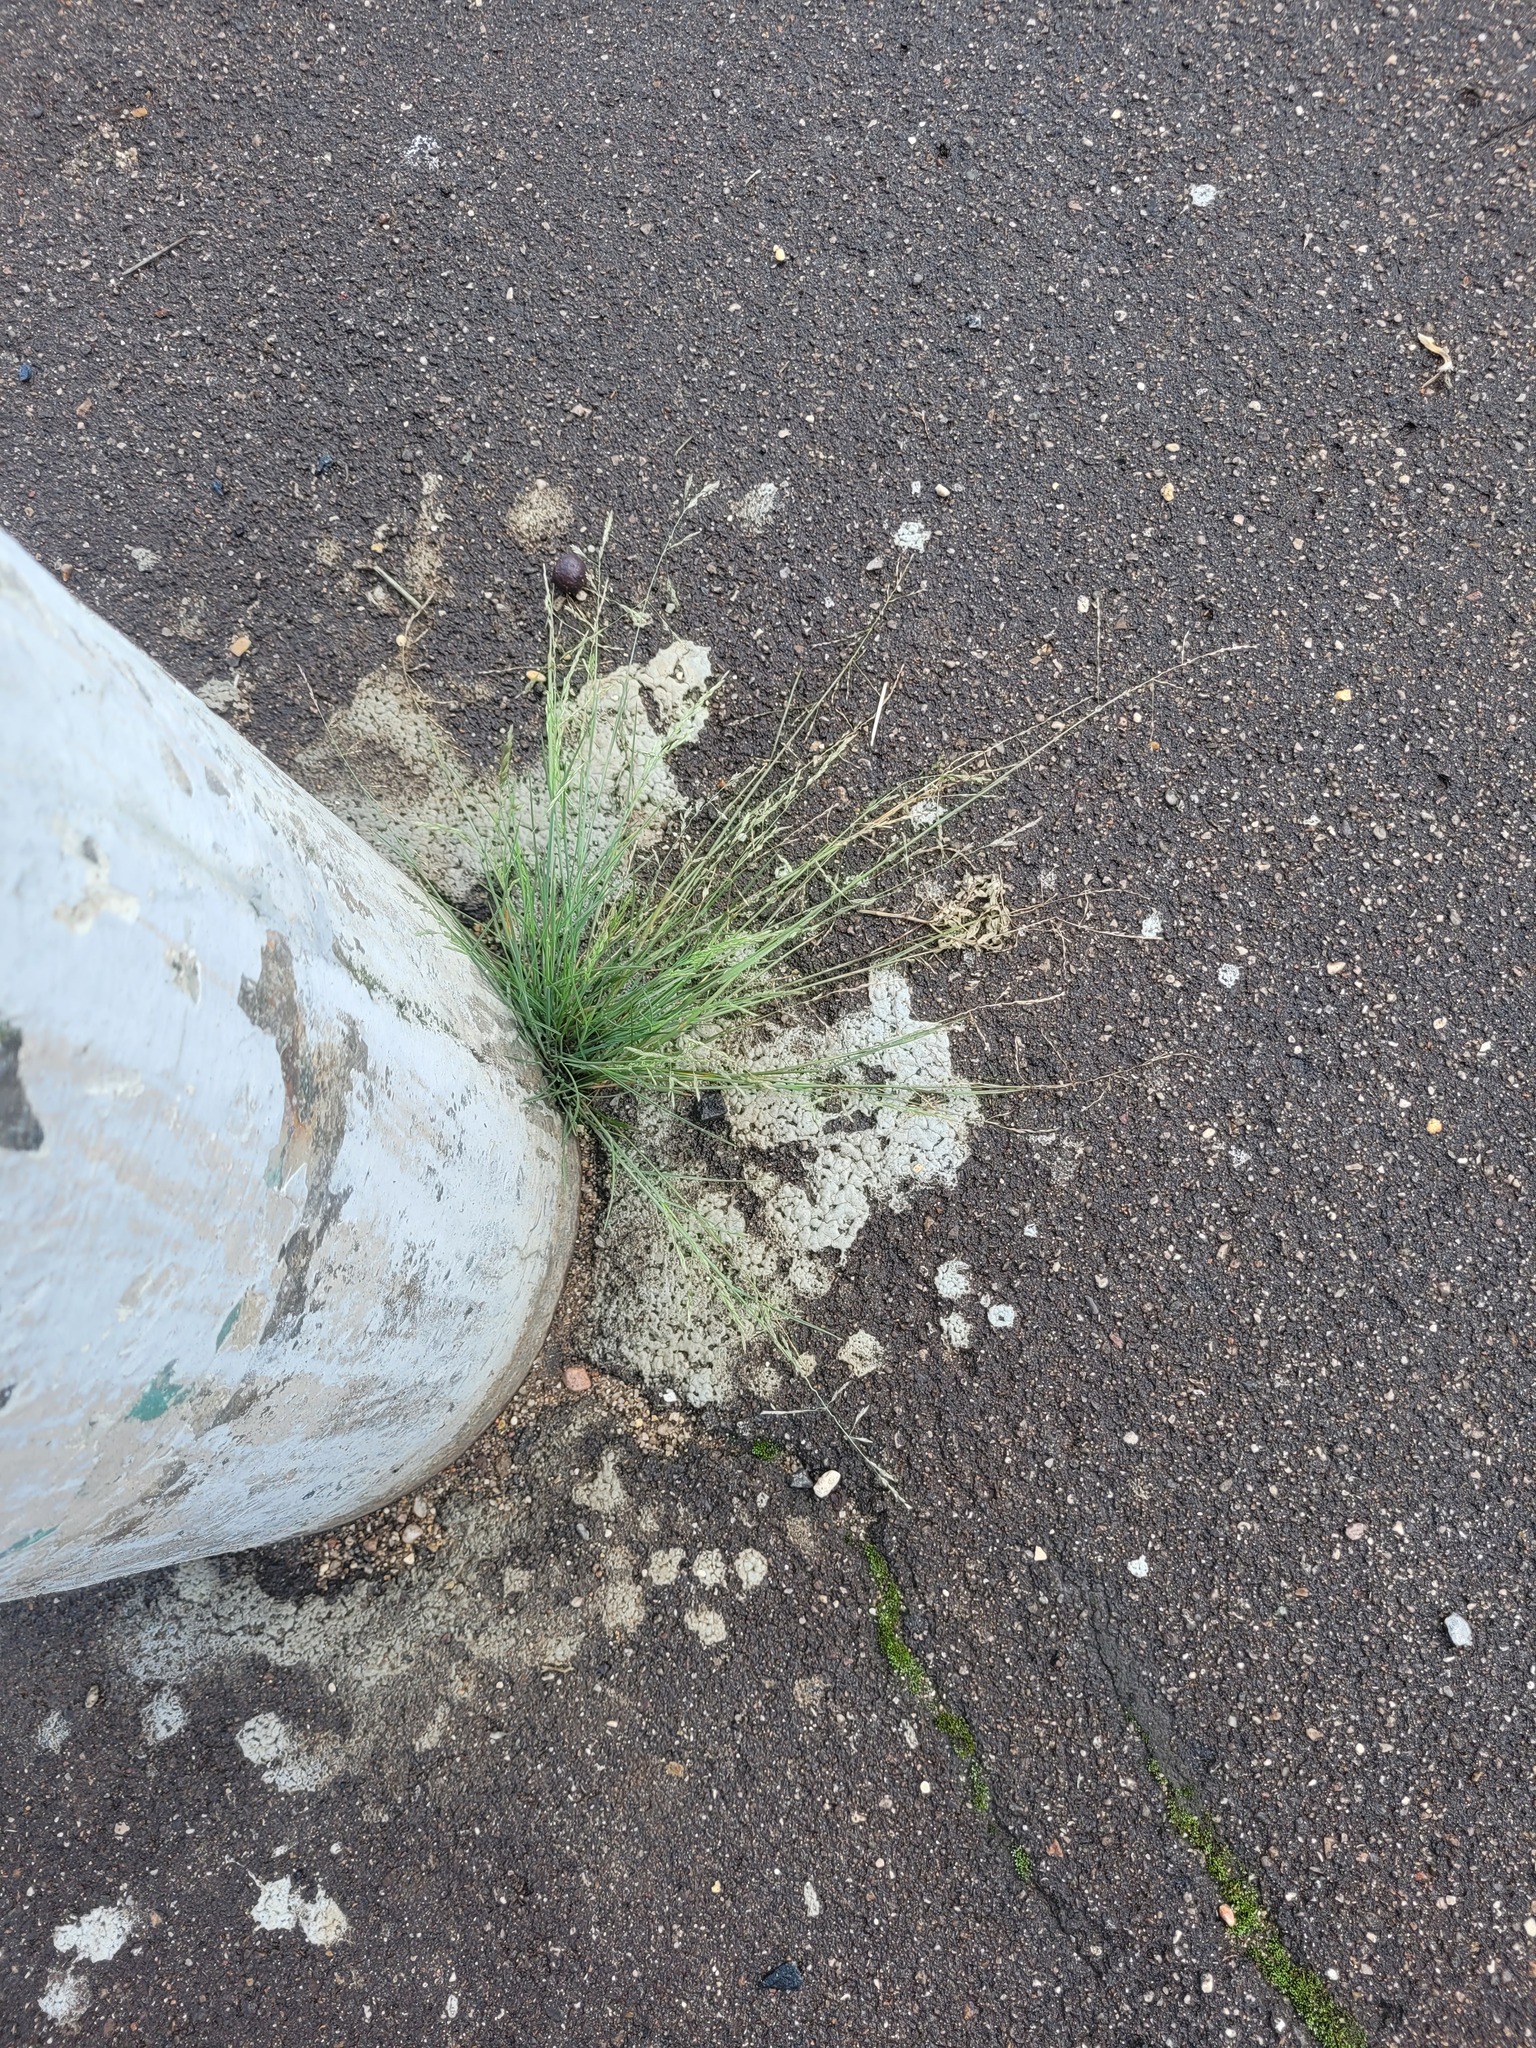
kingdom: Plantae
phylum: Tracheophyta
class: Liliopsida
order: Poales
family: Poaceae
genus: Puccinellia
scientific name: Puccinellia distans
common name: Weeping alkaligrass
